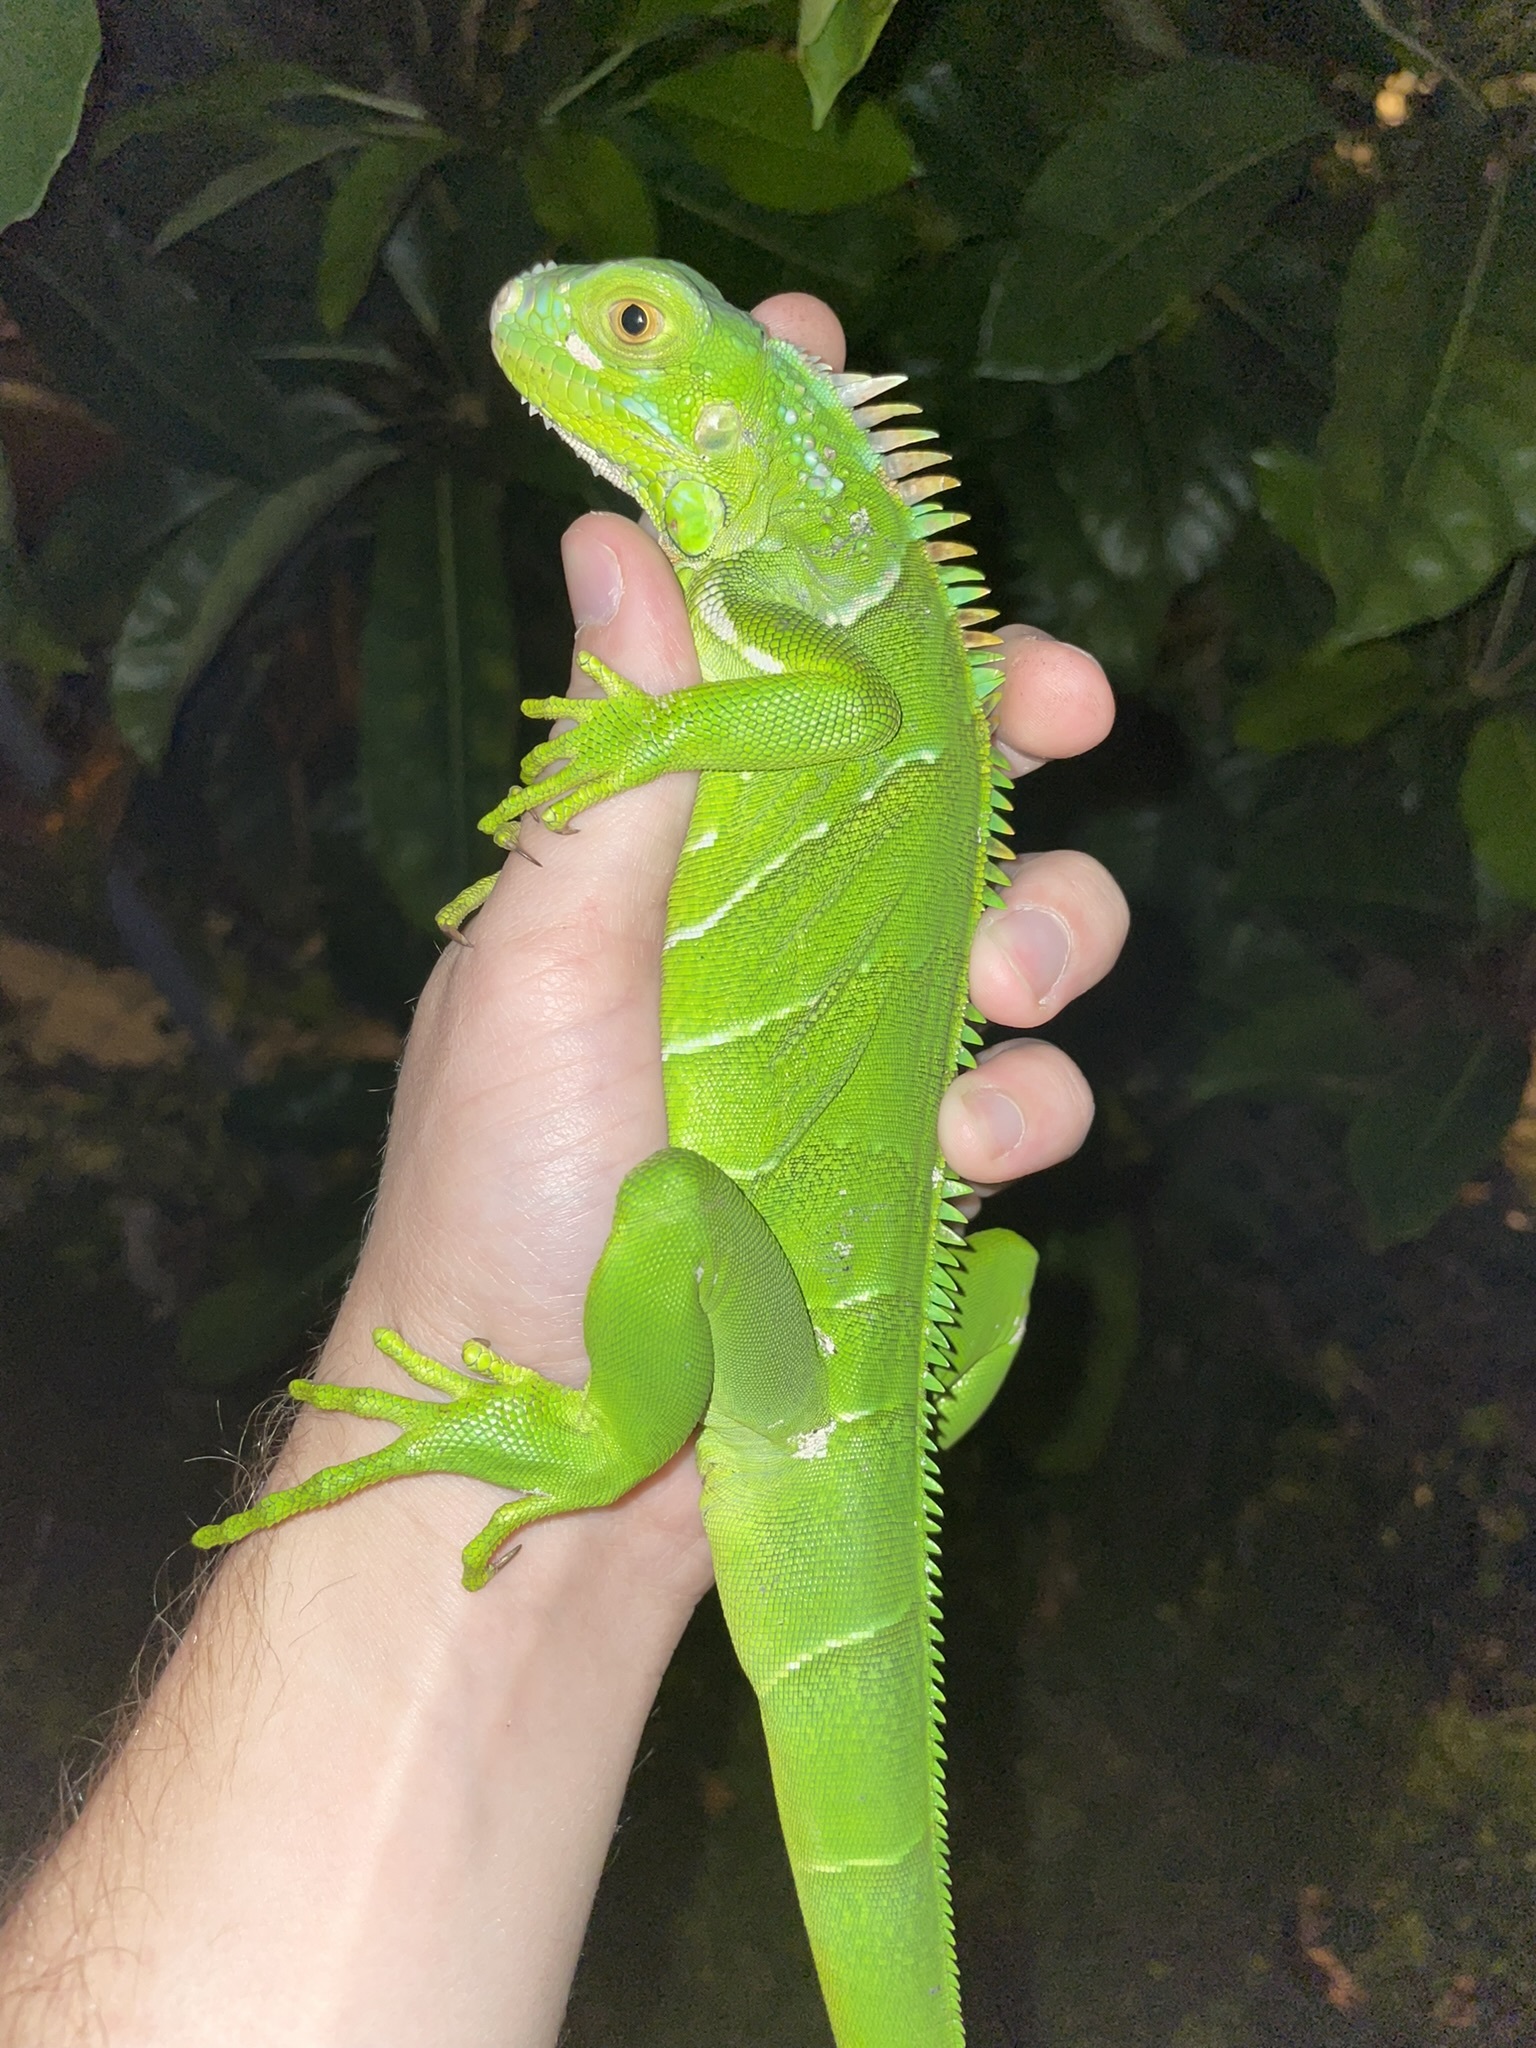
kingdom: Animalia
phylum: Chordata
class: Squamata
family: Iguanidae
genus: Iguana
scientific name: Iguana iguana
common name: Green iguana
